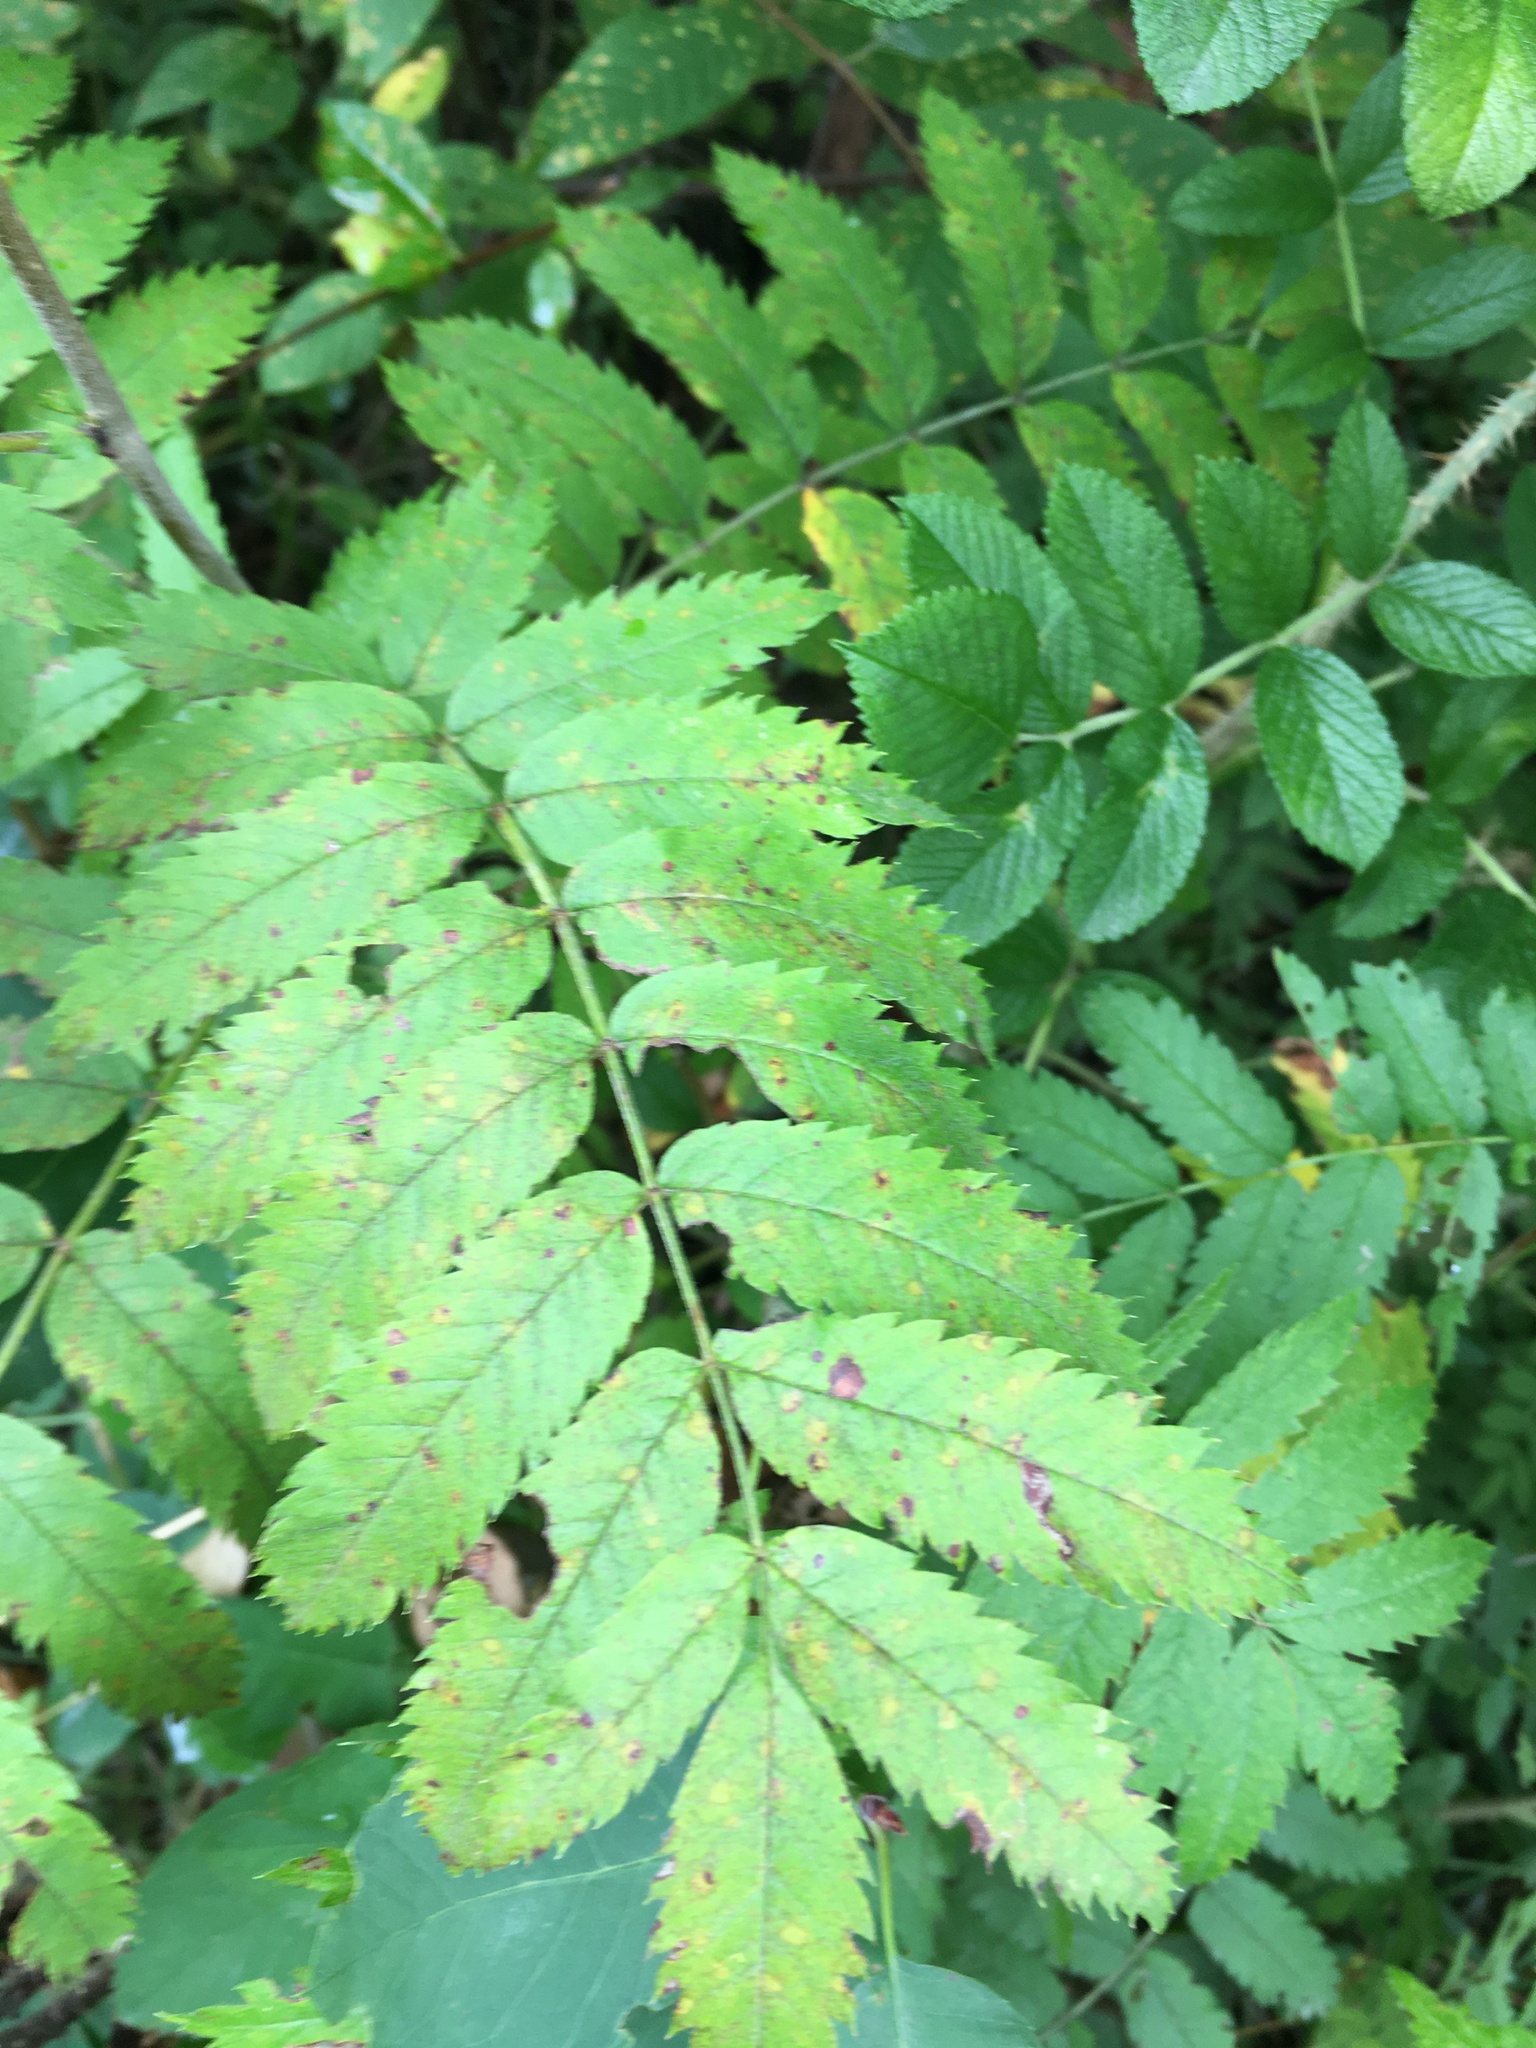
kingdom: Plantae
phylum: Tracheophyta
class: Magnoliopsida
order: Rosales
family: Rosaceae
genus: Sorbus
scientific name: Sorbus aucuparia
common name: Rowan
